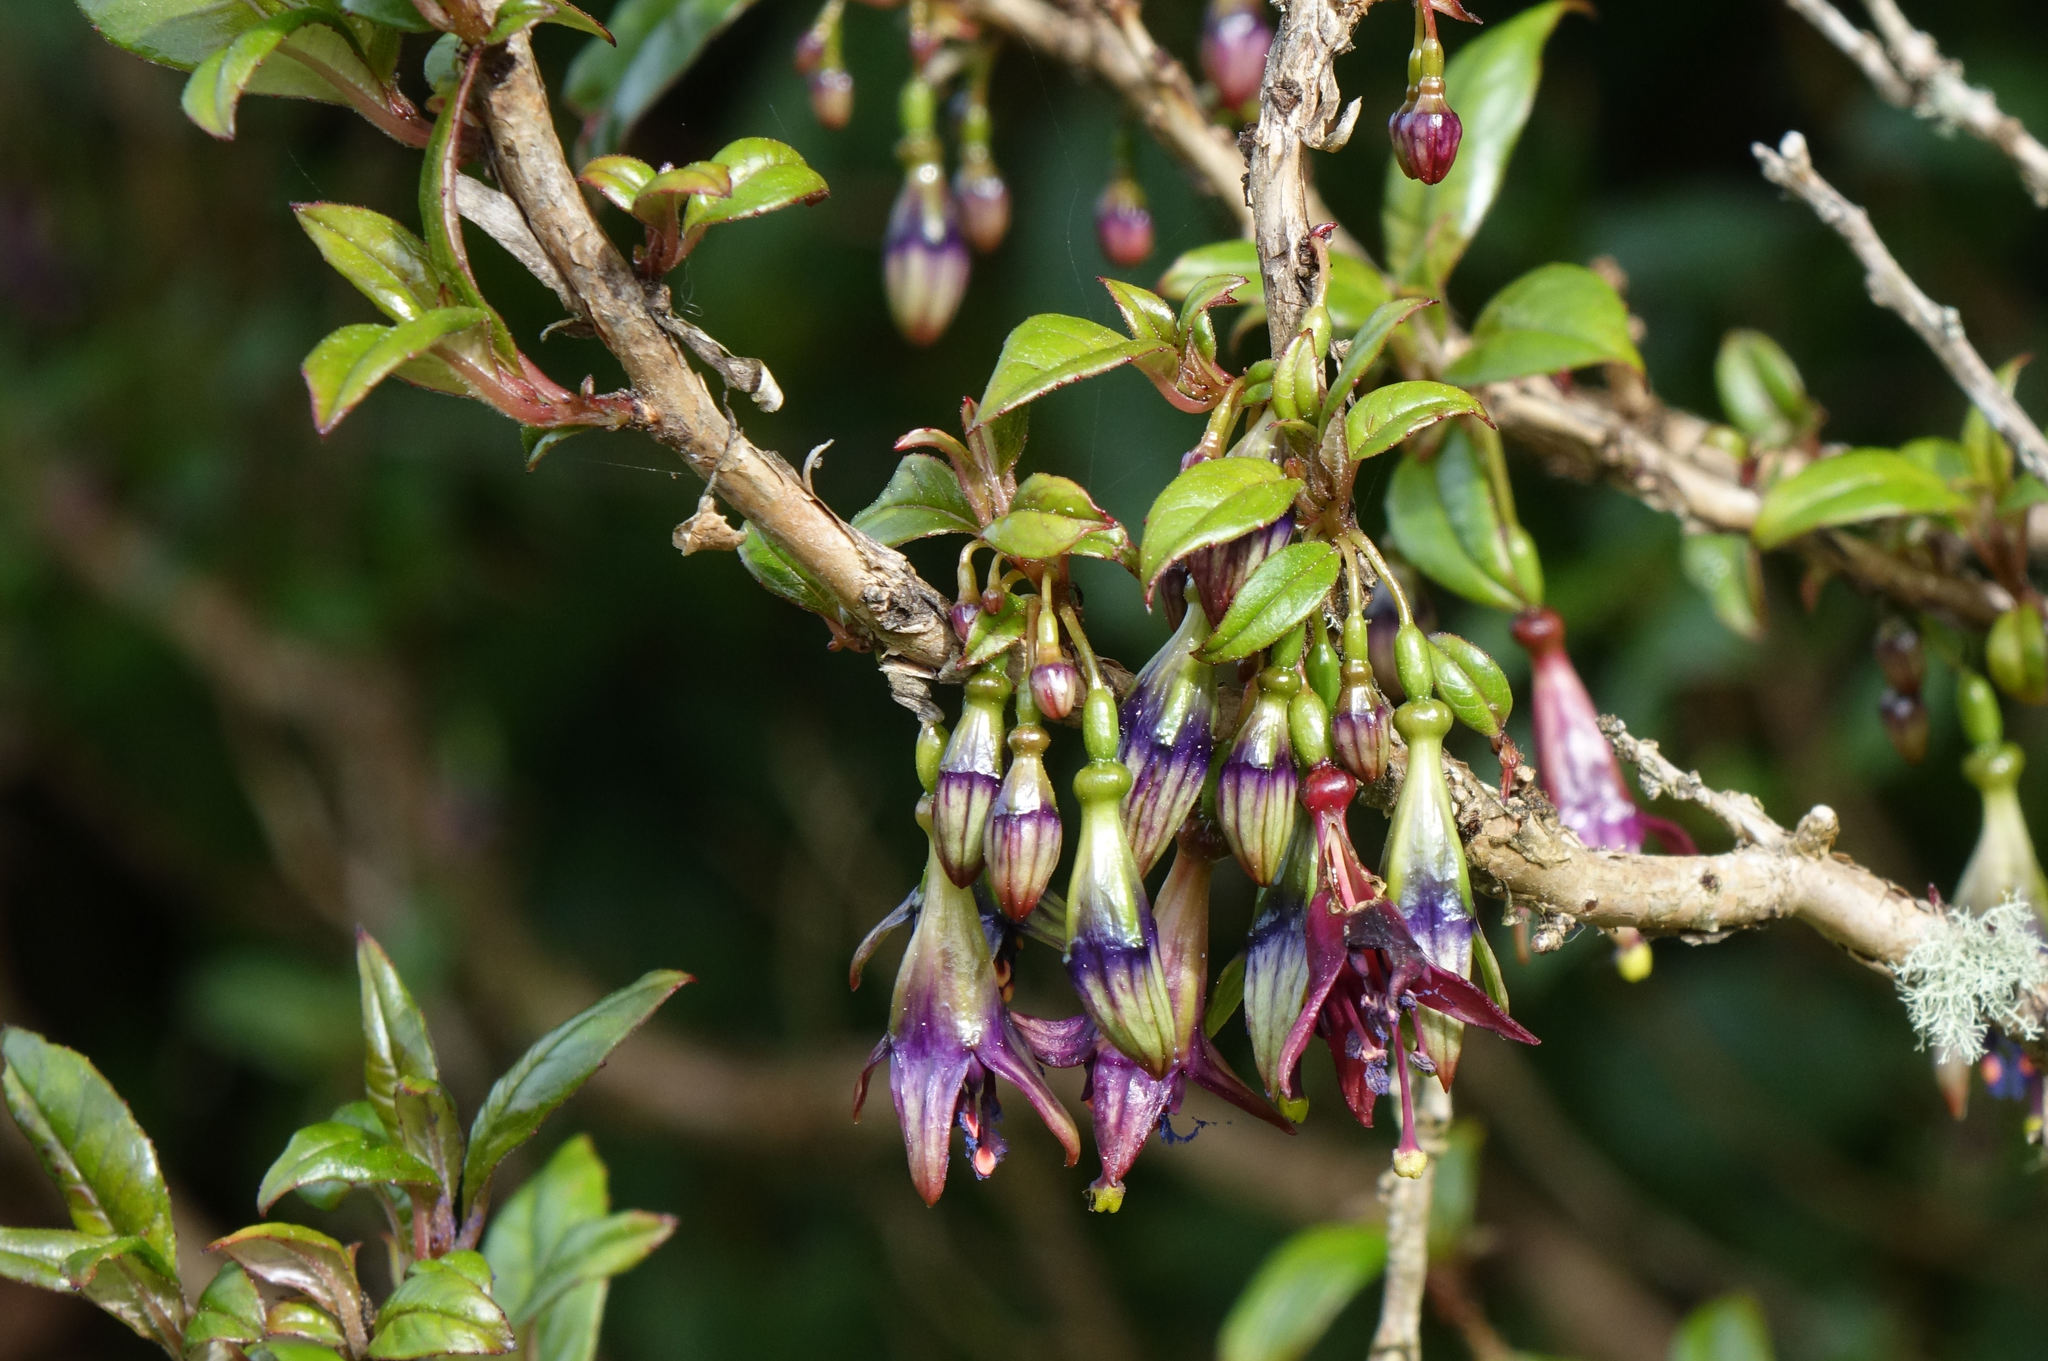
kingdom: Plantae
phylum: Tracheophyta
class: Magnoliopsida
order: Myrtales
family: Onagraceae
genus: Fuchsia
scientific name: Fuchsia excorticata
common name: Tree fuchsia
